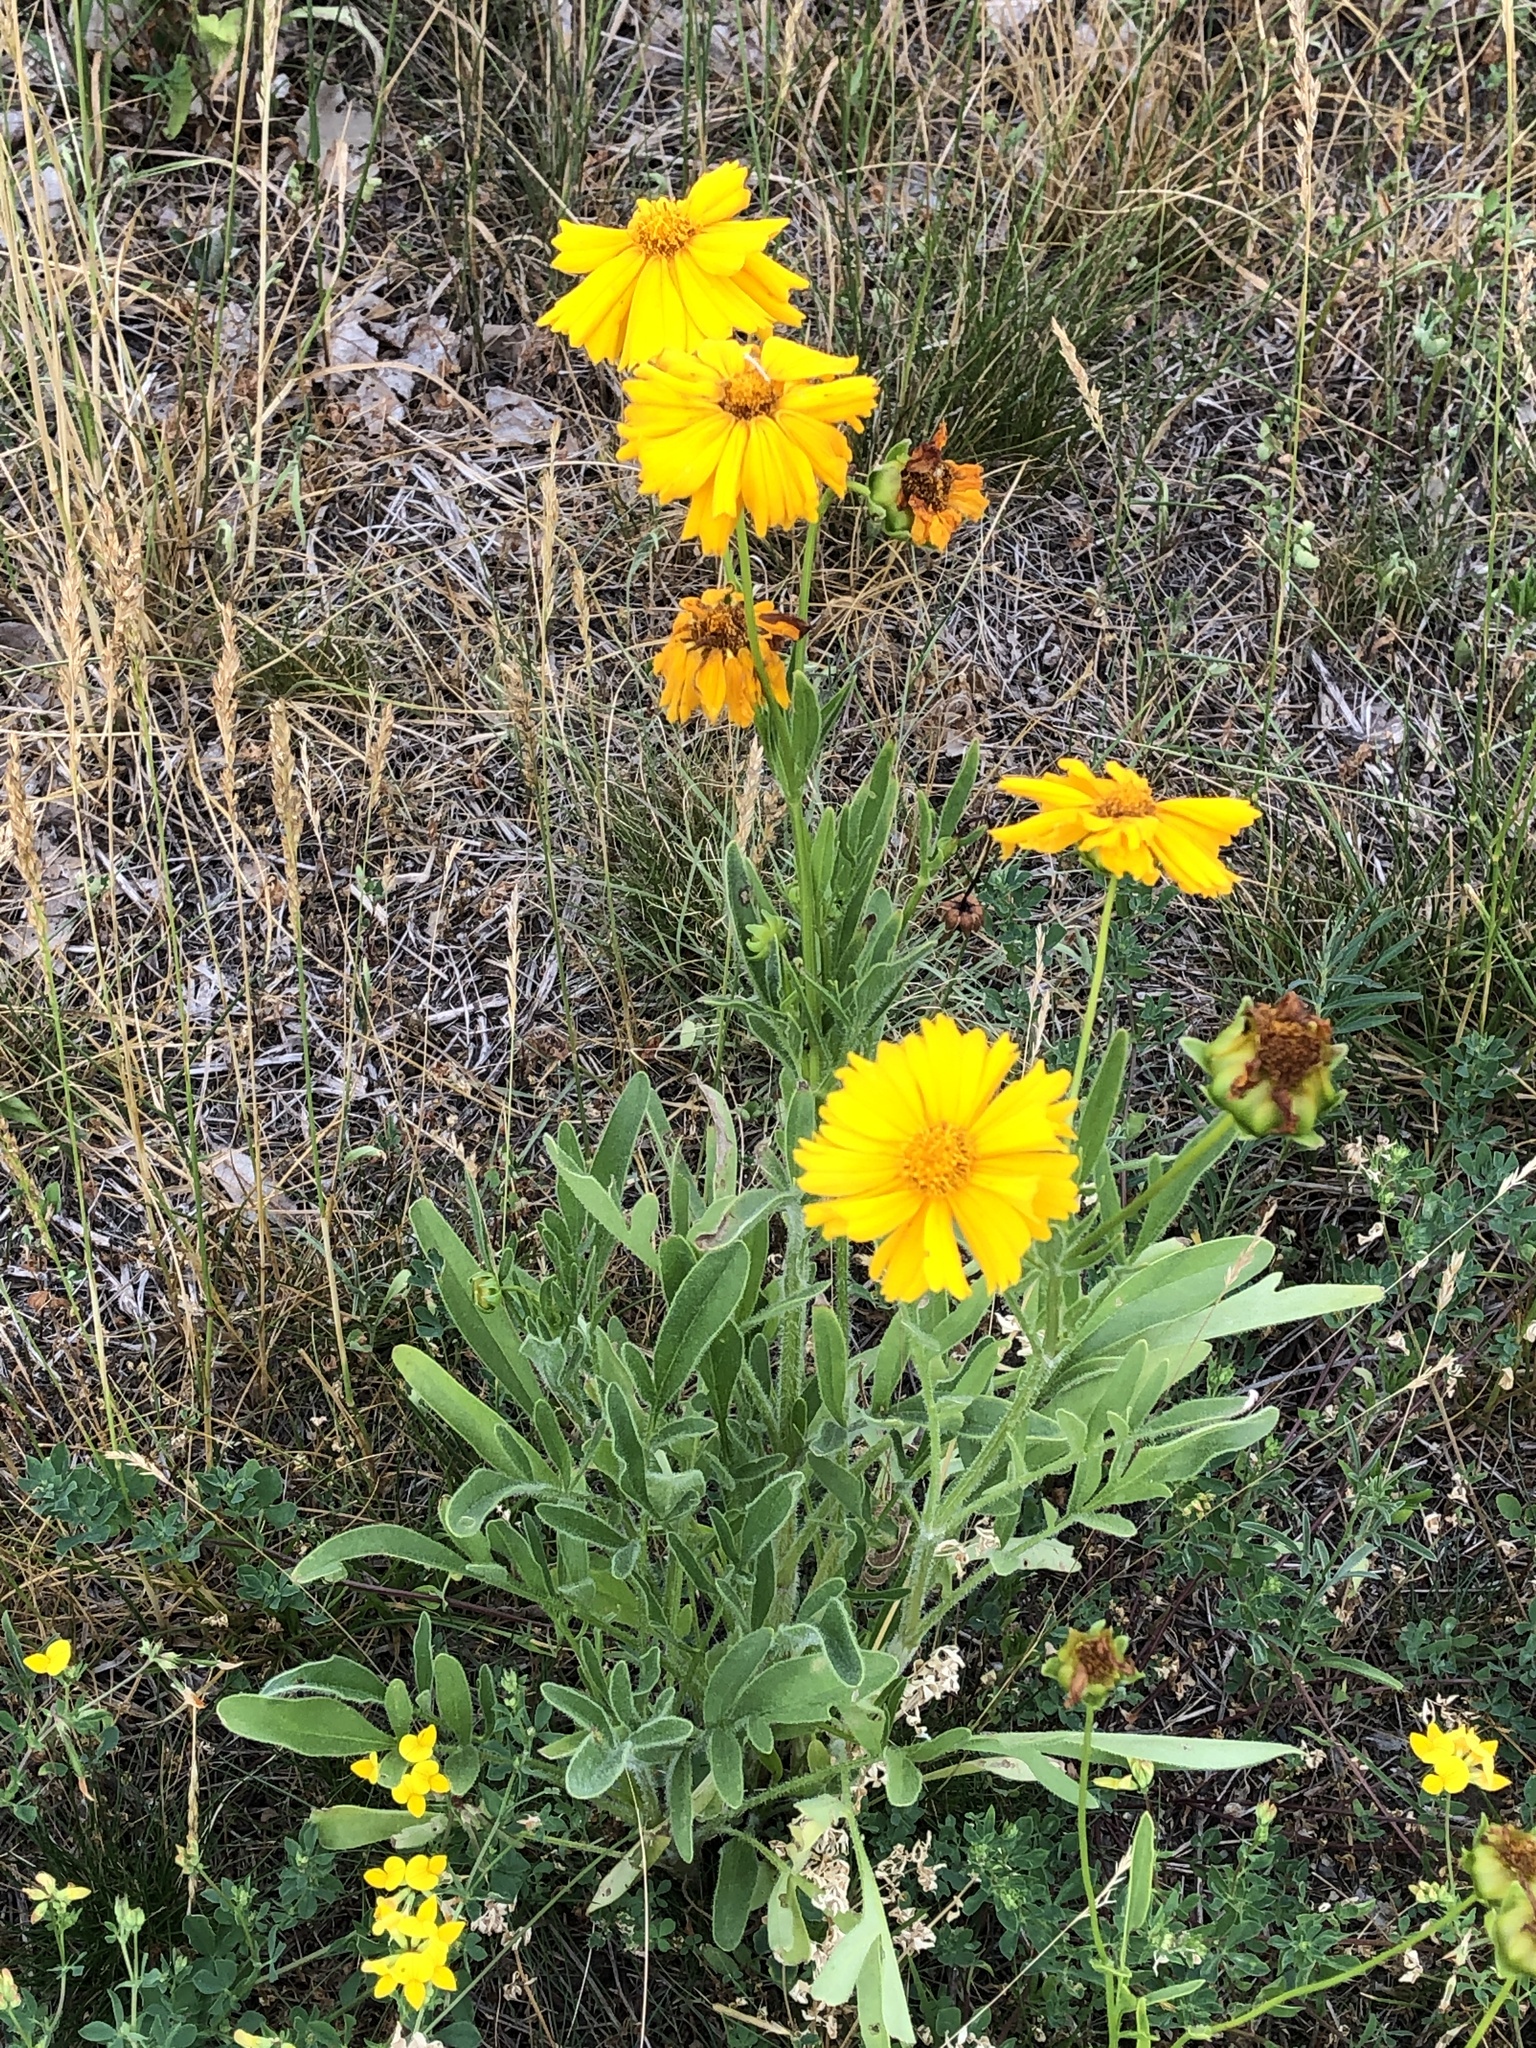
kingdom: Plantae
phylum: Tracheophyta
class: Magnoliopsida
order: Asterales
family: Asteraceae
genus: Coreopsis
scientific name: Coreopsis lanceolata
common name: Garden coreopsis
